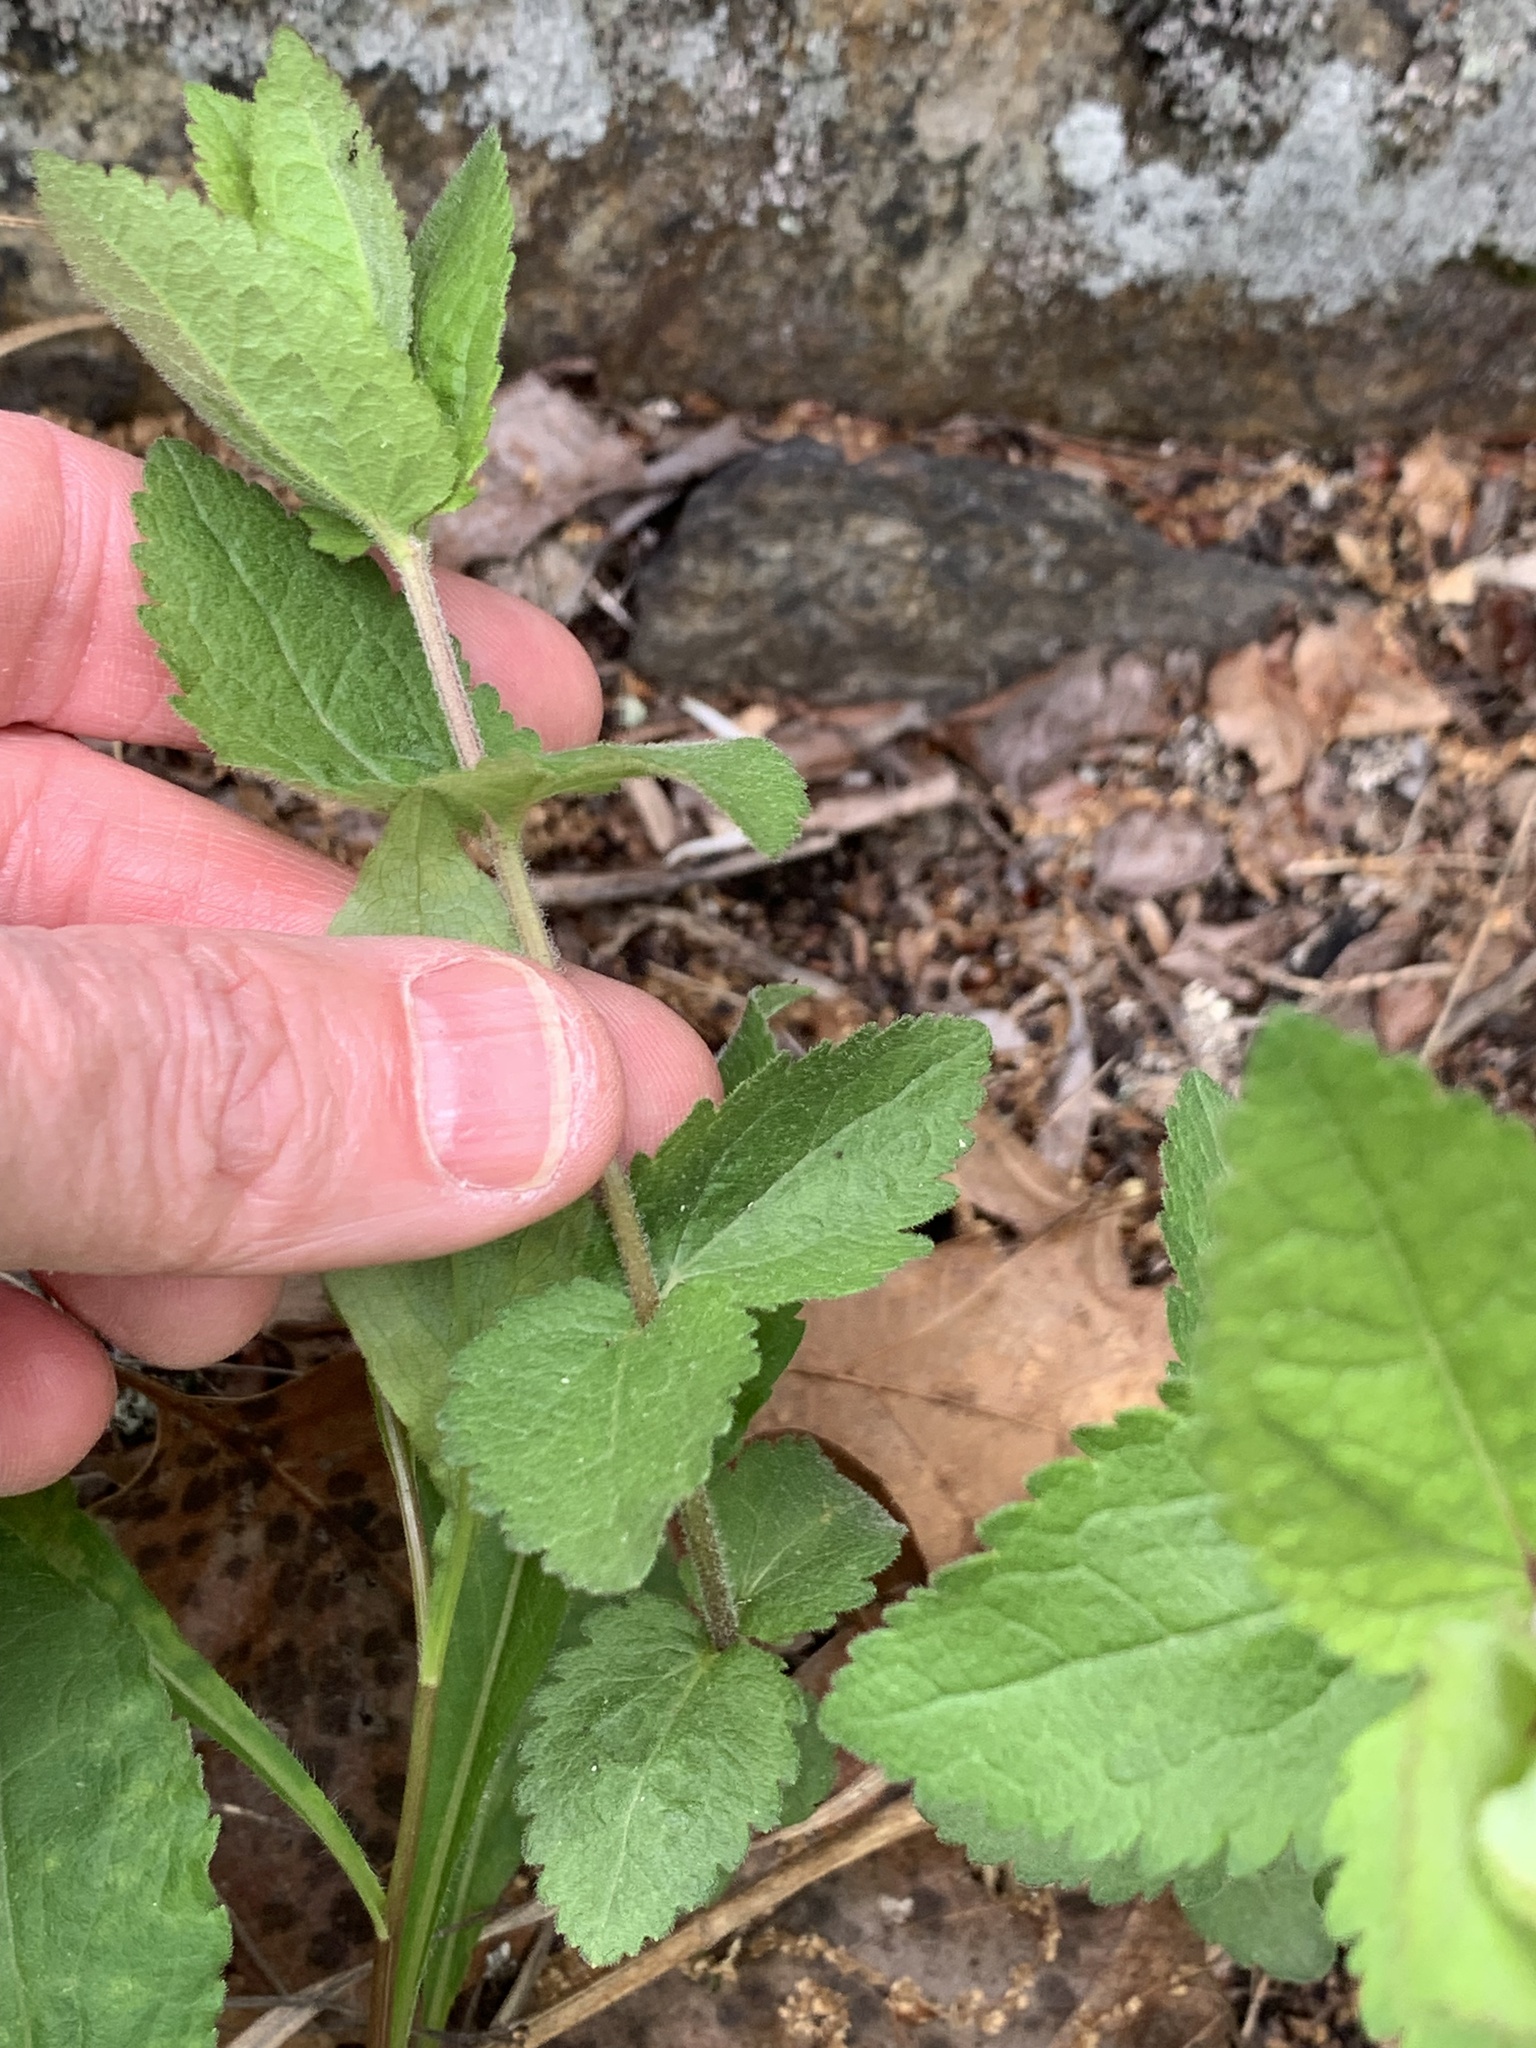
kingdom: Plantae
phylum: Tracheophyta
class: Magnoliopsida
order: Asterales
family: Asteraceae
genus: Eupatorium
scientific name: Eupatorium rotundifolium
